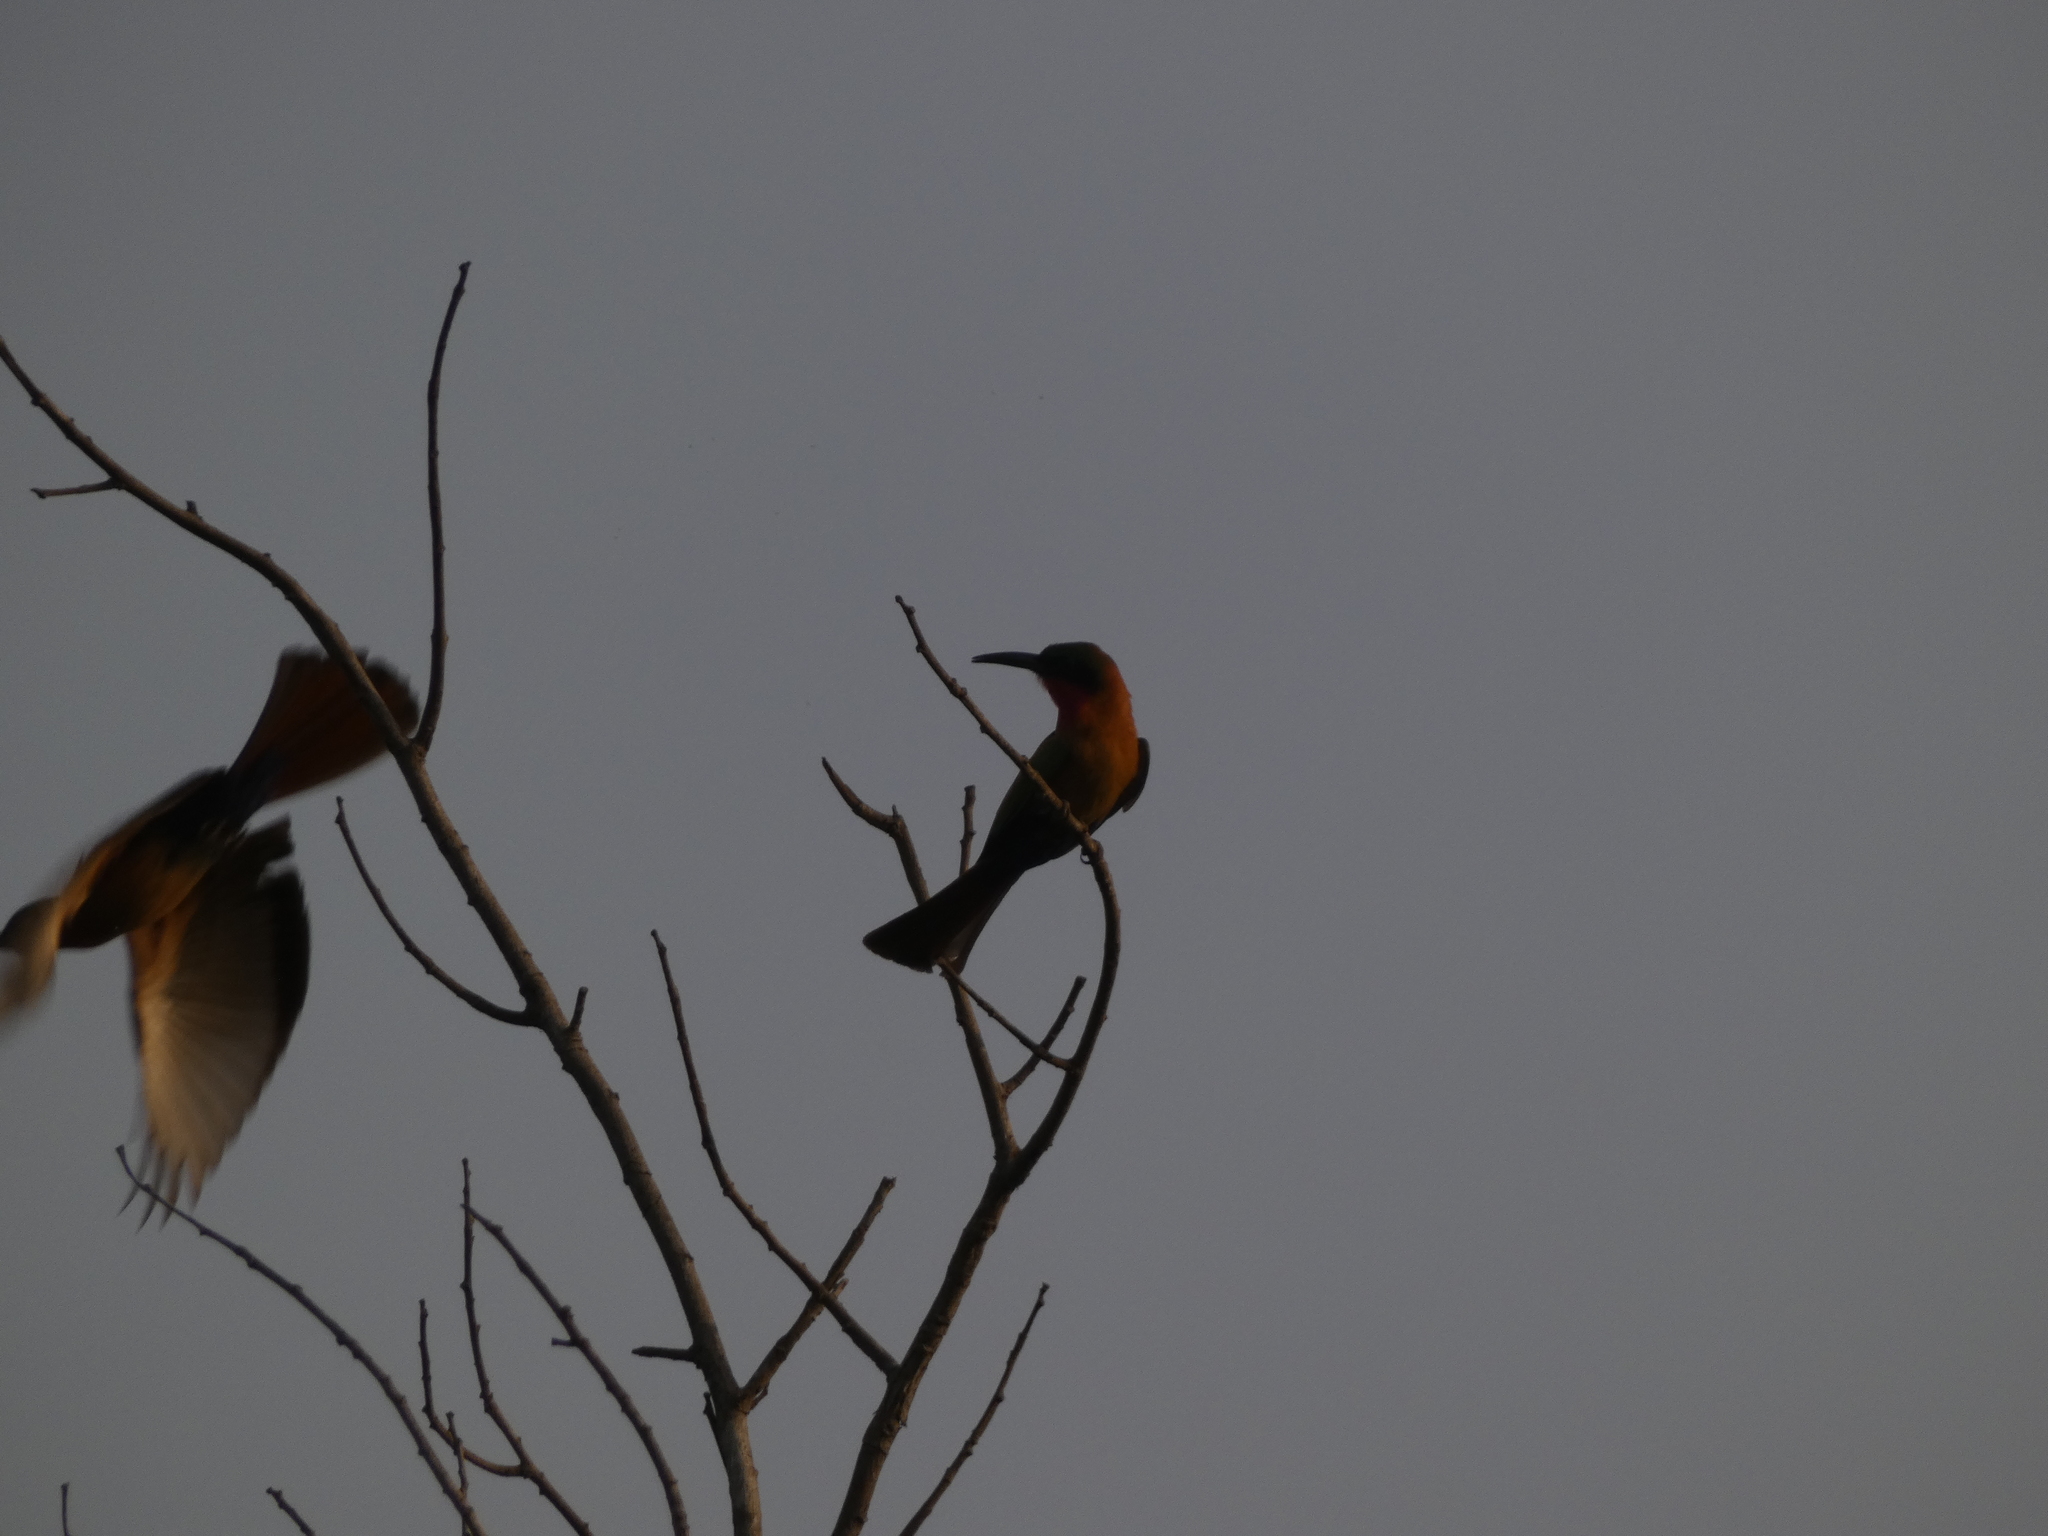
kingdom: Animalia
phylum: Chordata
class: Aves
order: Coraciiformes
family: Meropidae
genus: Merops
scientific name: Merops bulocki
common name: Red-throated bee-eater
